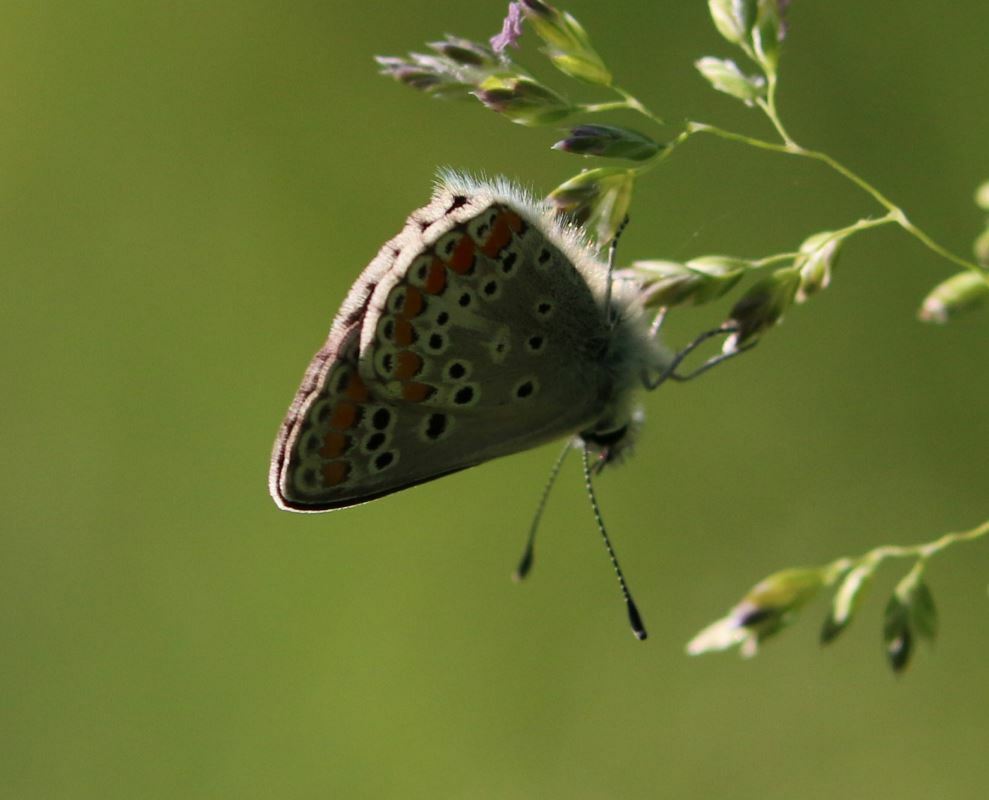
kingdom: Animalia
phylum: Arthropoda
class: Insecta
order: Lepidoptera
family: Lycaenidae
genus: Aricia
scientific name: Aricia agestis
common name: Brown argus
